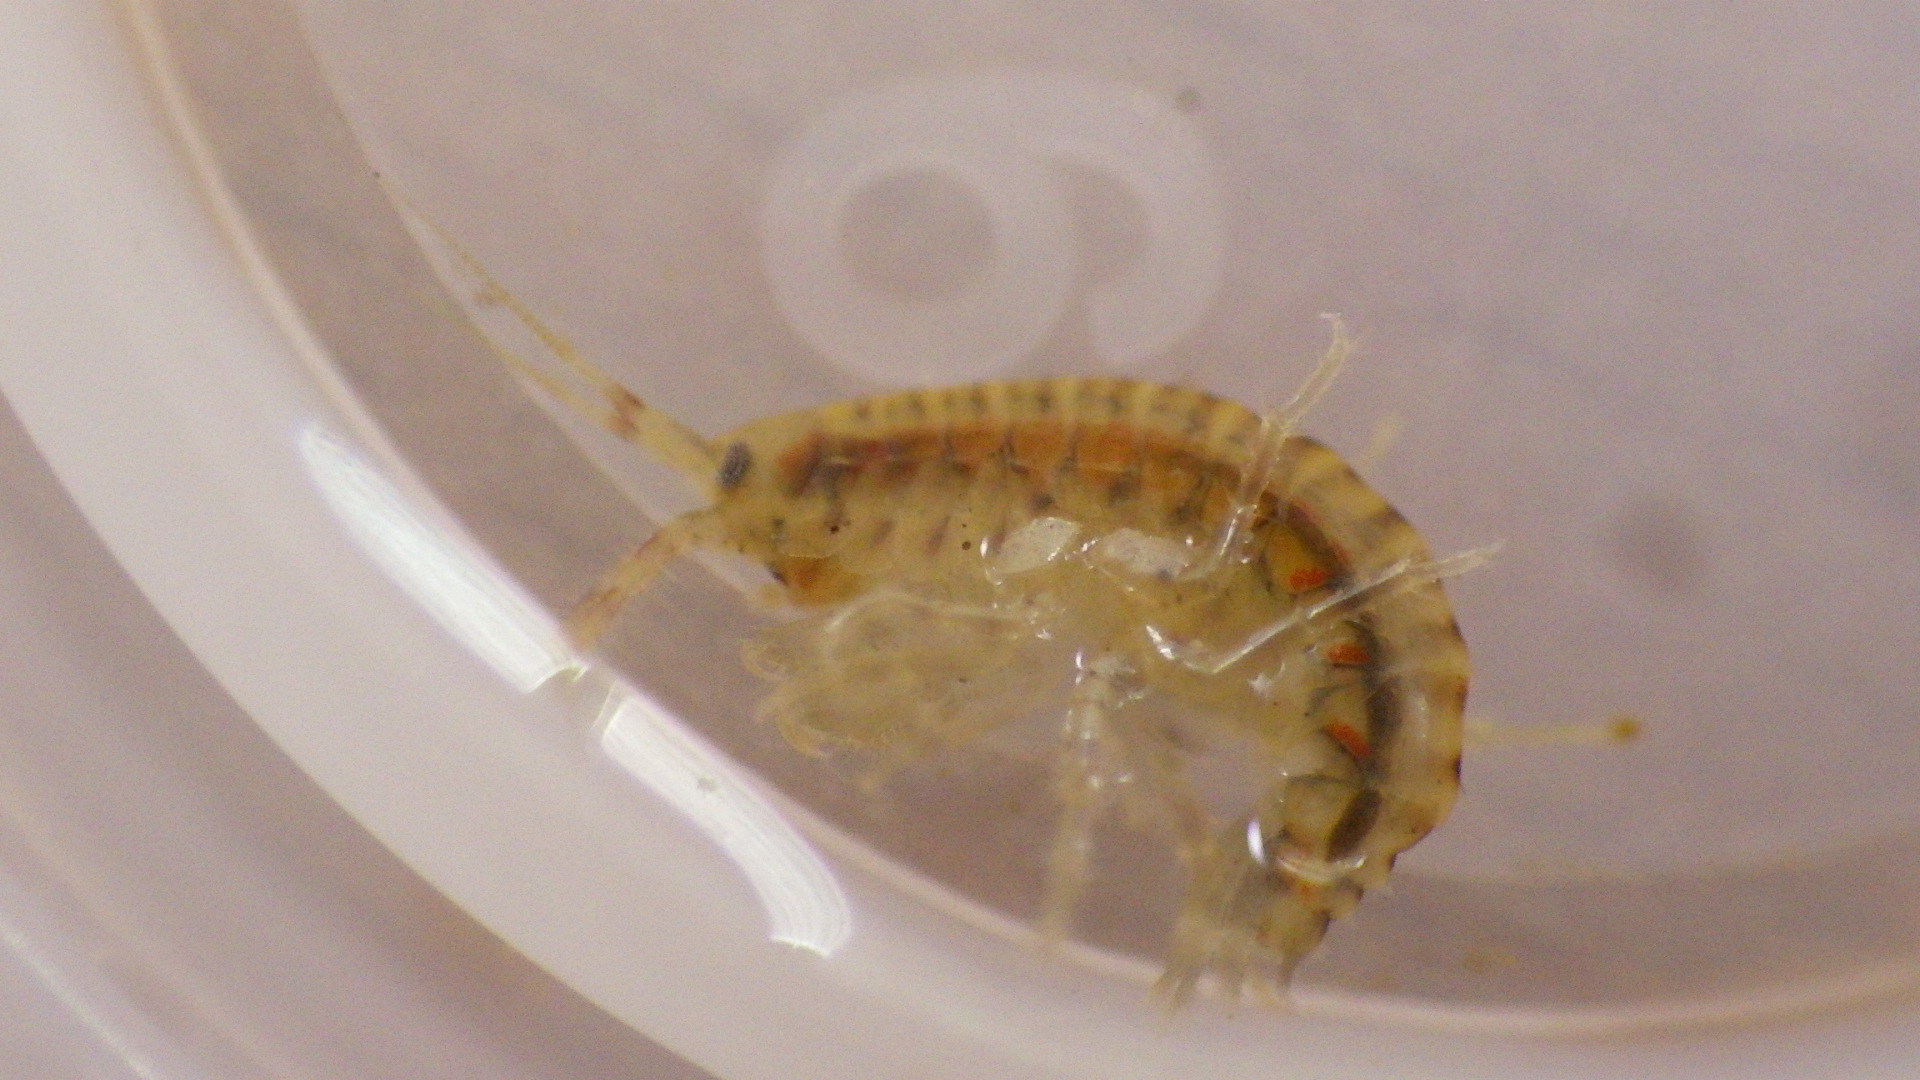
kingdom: Animalia
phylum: Arthropoda
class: Malacostraca
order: Amphipoda
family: Gammaridae
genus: Gammarus
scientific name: Gammarus fasciatus
